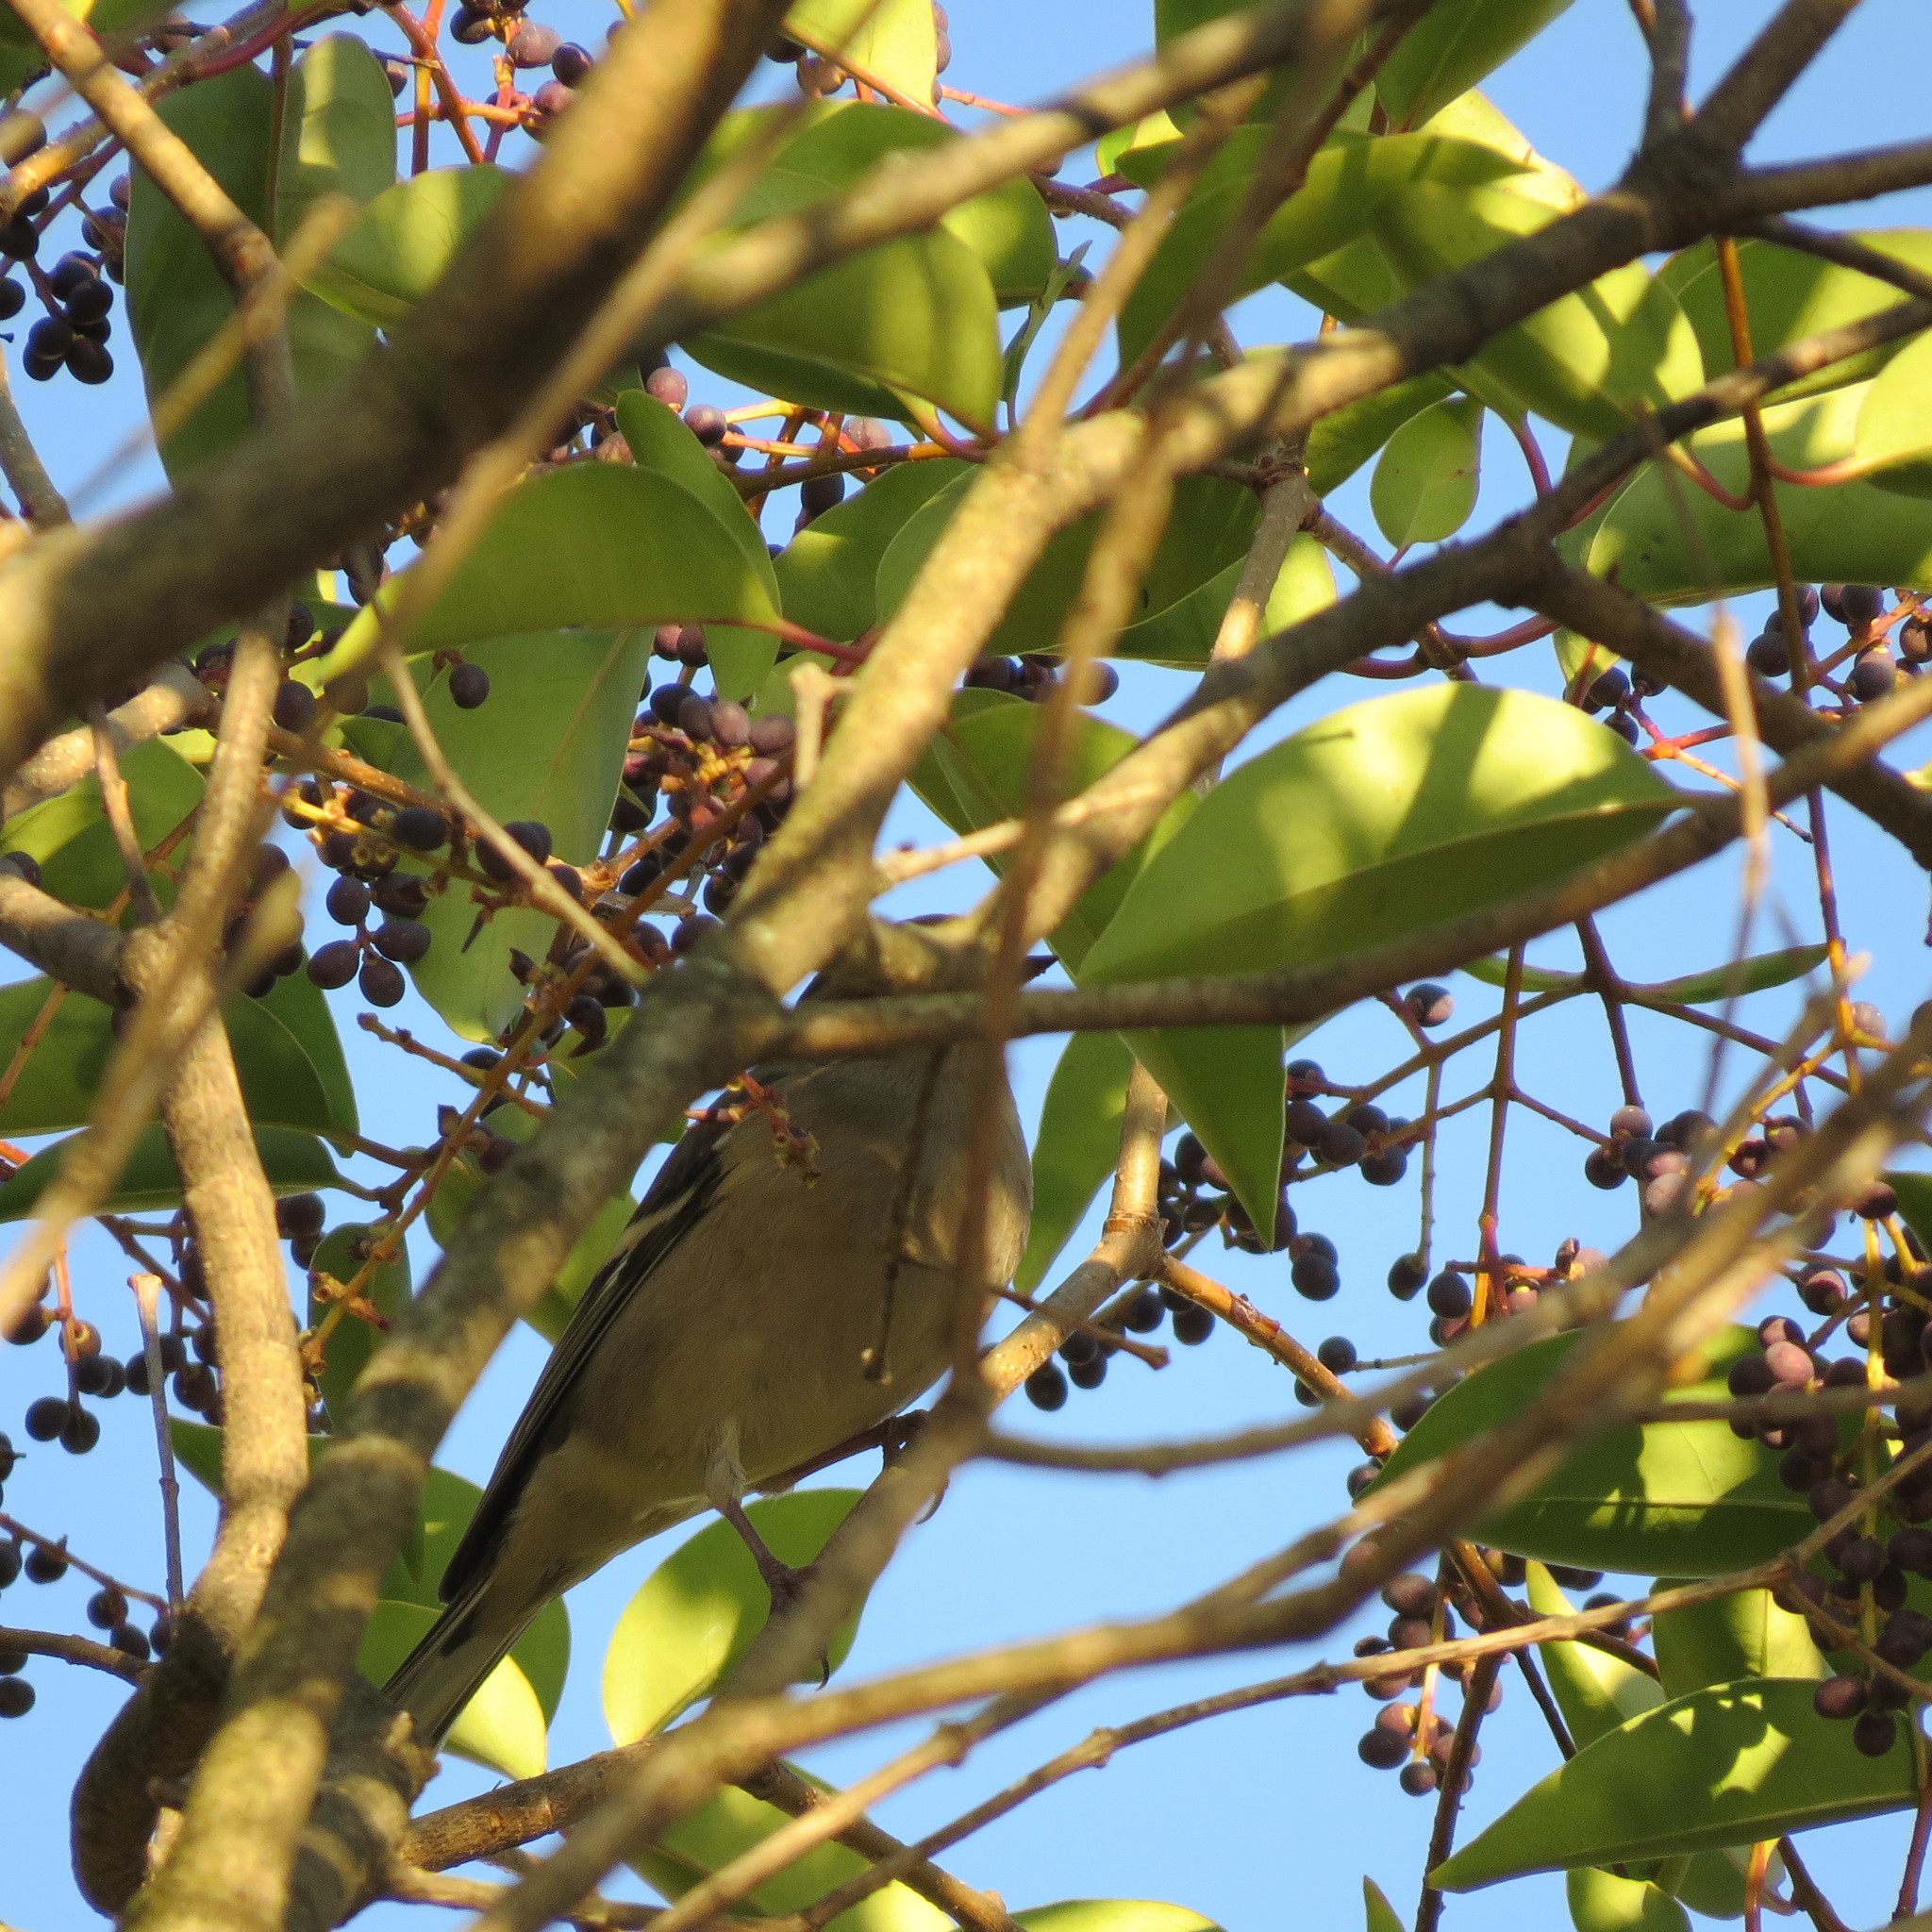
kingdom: Animalia
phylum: Chordata
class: Aves
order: Passeriformes
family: Fringillidae
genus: Fringilla
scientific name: Fringilla coelebs
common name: Common chaffinch
